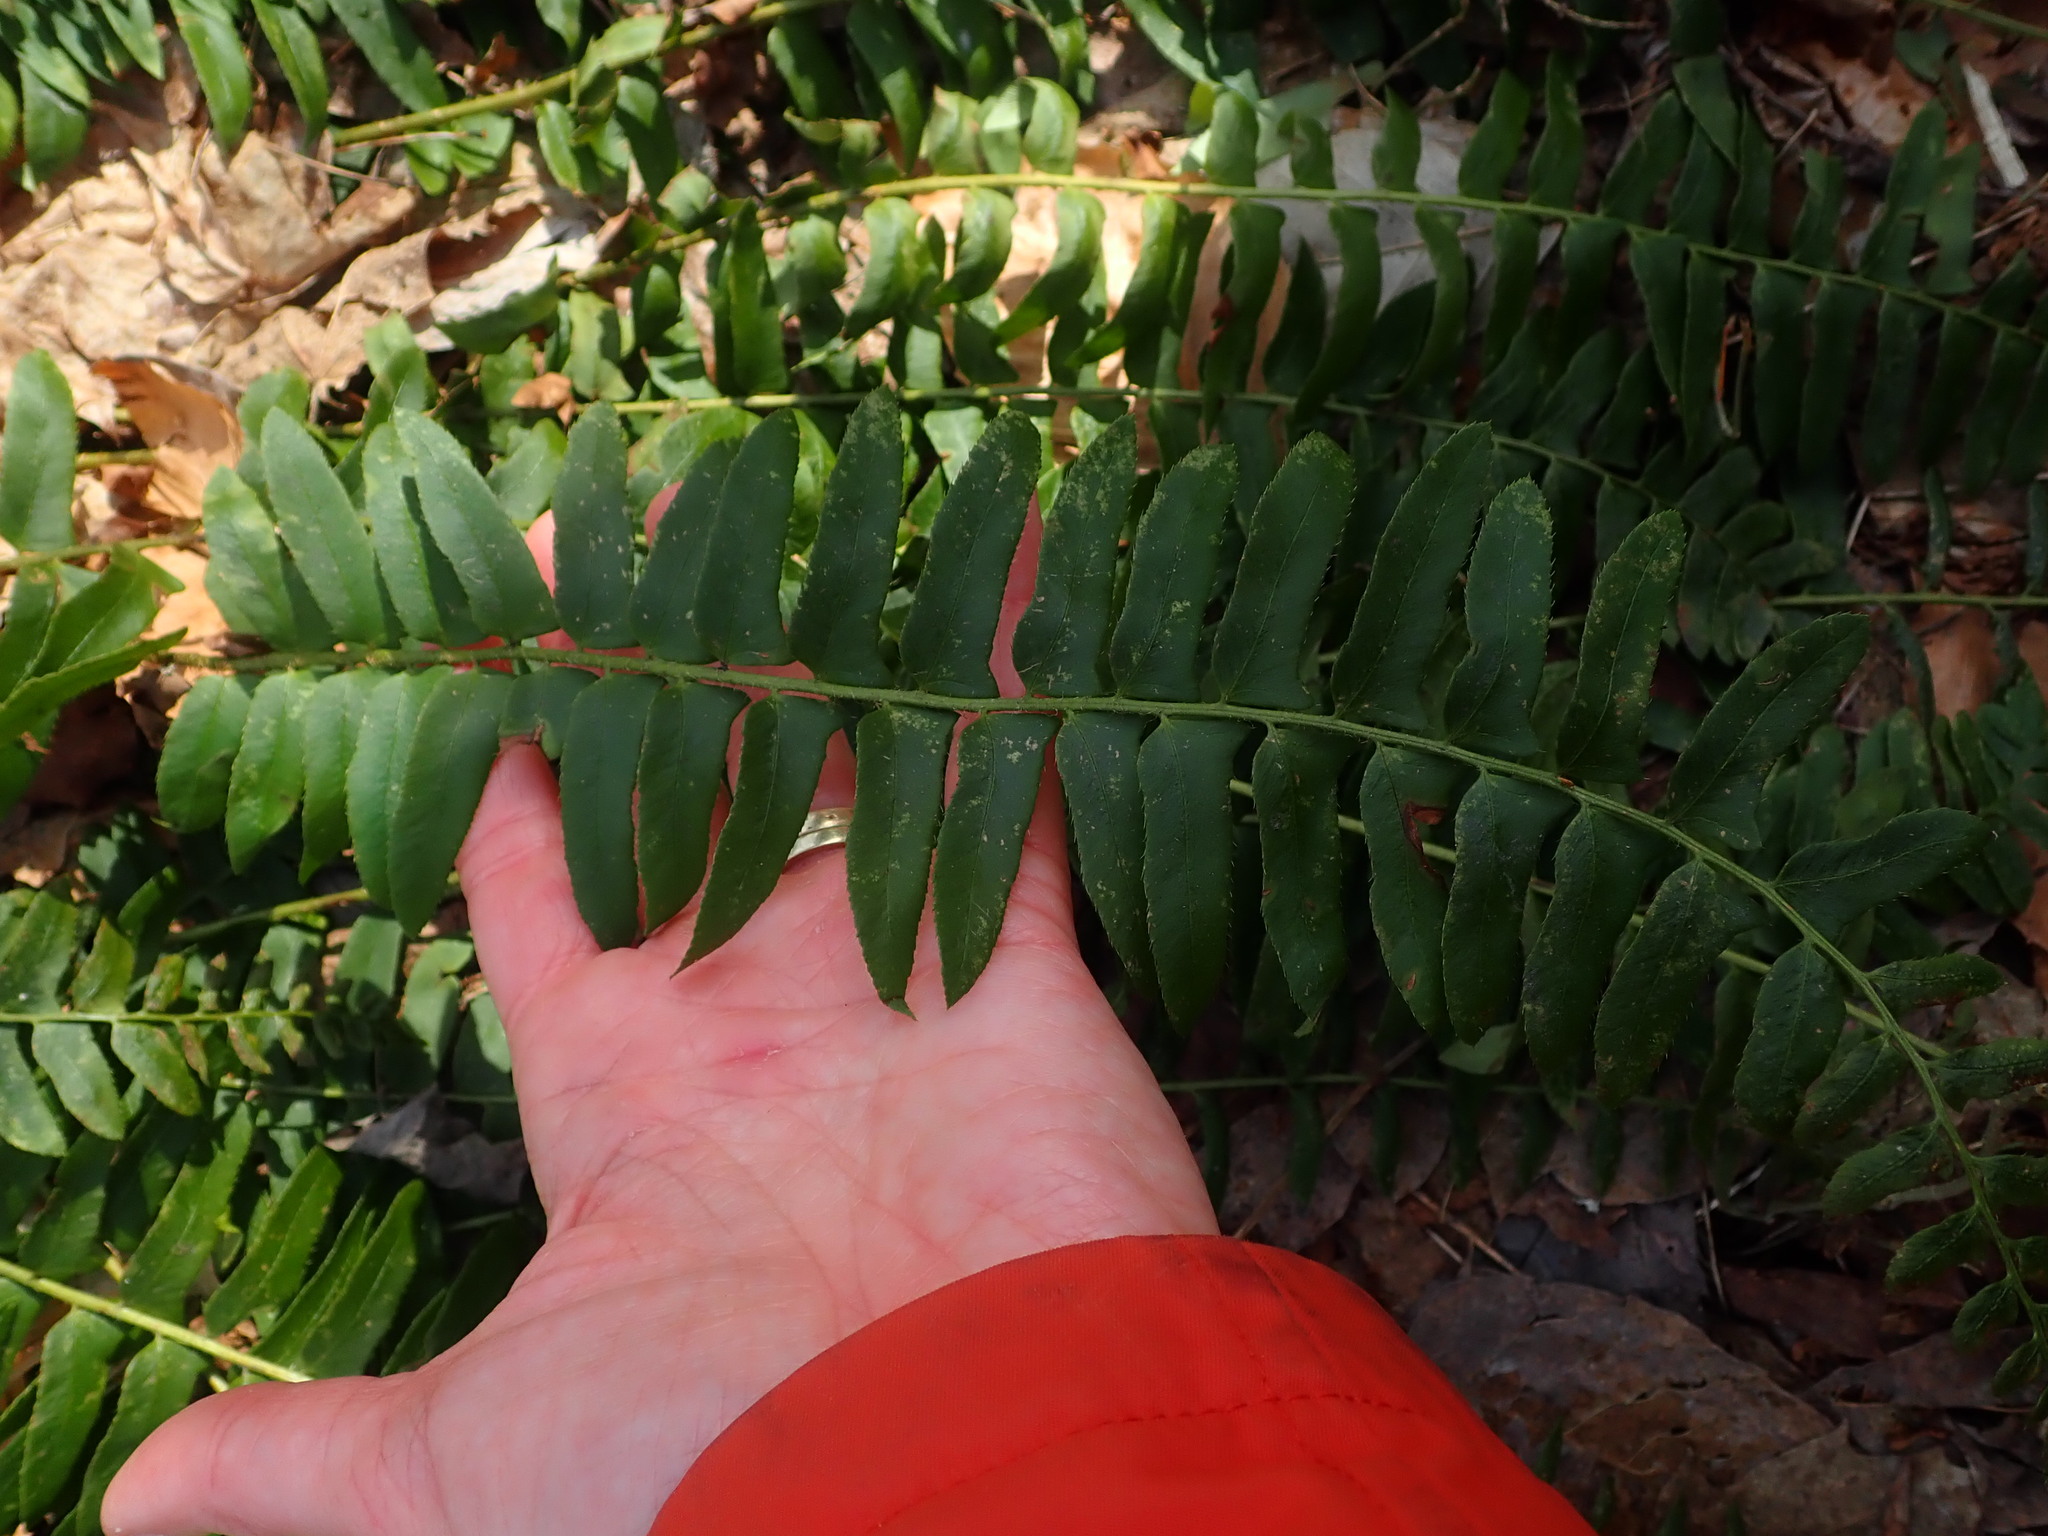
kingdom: Plantae
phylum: Tracheophyta
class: Polypodiopsida
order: Polypodiales
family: Dryopteridaceae
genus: Polystichum
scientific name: Polystichum acrostichoides
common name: Christmas fern
